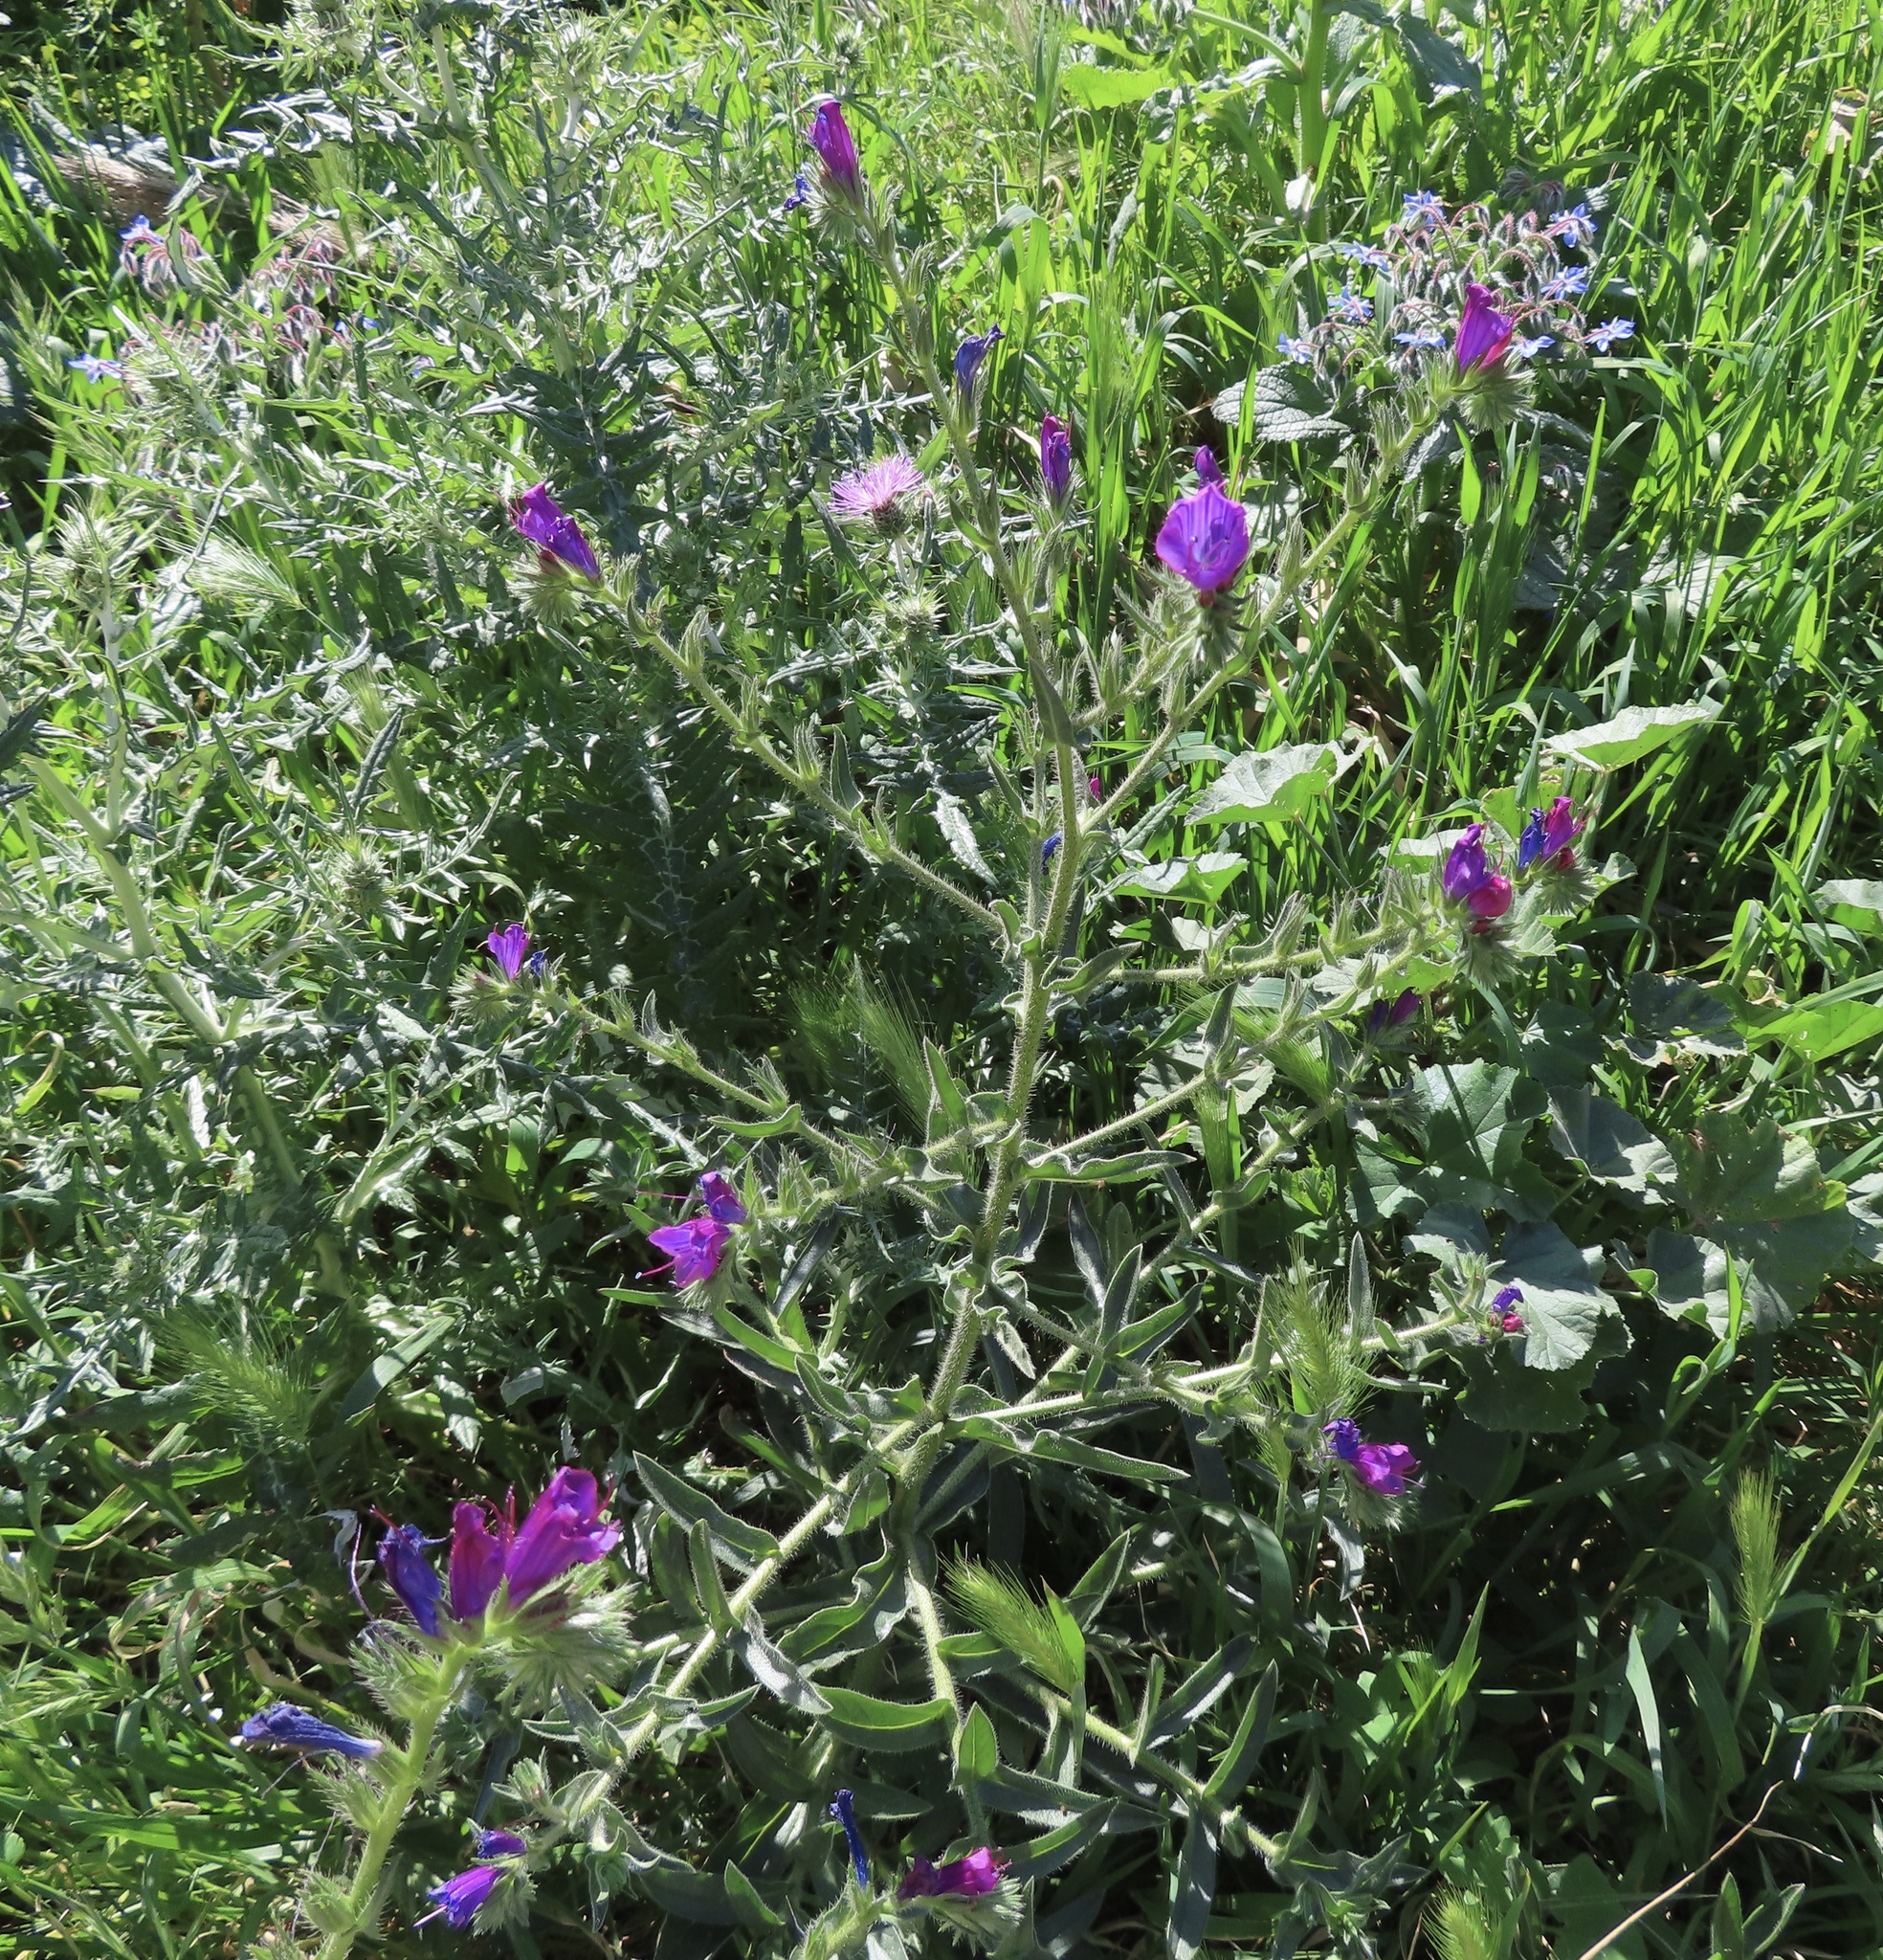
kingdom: Plantae
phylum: Tracheophyta
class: Magnoliopsida
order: Boraginales
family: Boraginaceae
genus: Echium
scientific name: Echium plantagineum
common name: Purple viper's-bugloss
